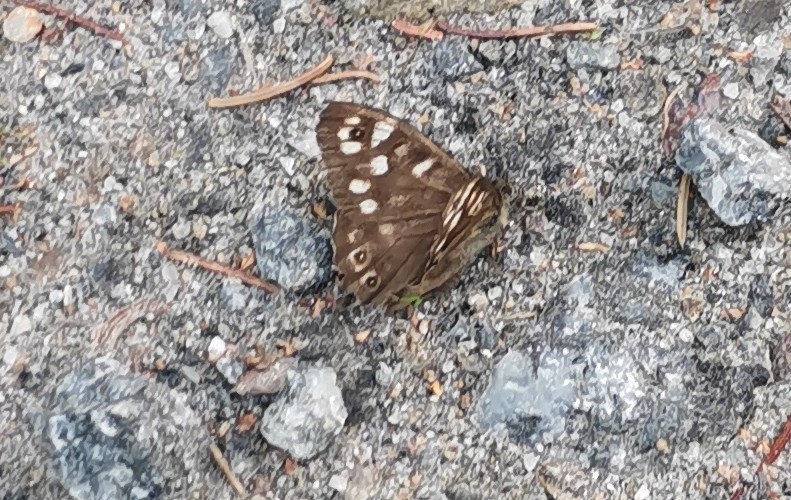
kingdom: Animalia
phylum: Arthropoda
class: Insecta
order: Lepidoptera
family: Nymphalidae
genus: Pararge
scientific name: Pararge aegeria
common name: Speckled wood
